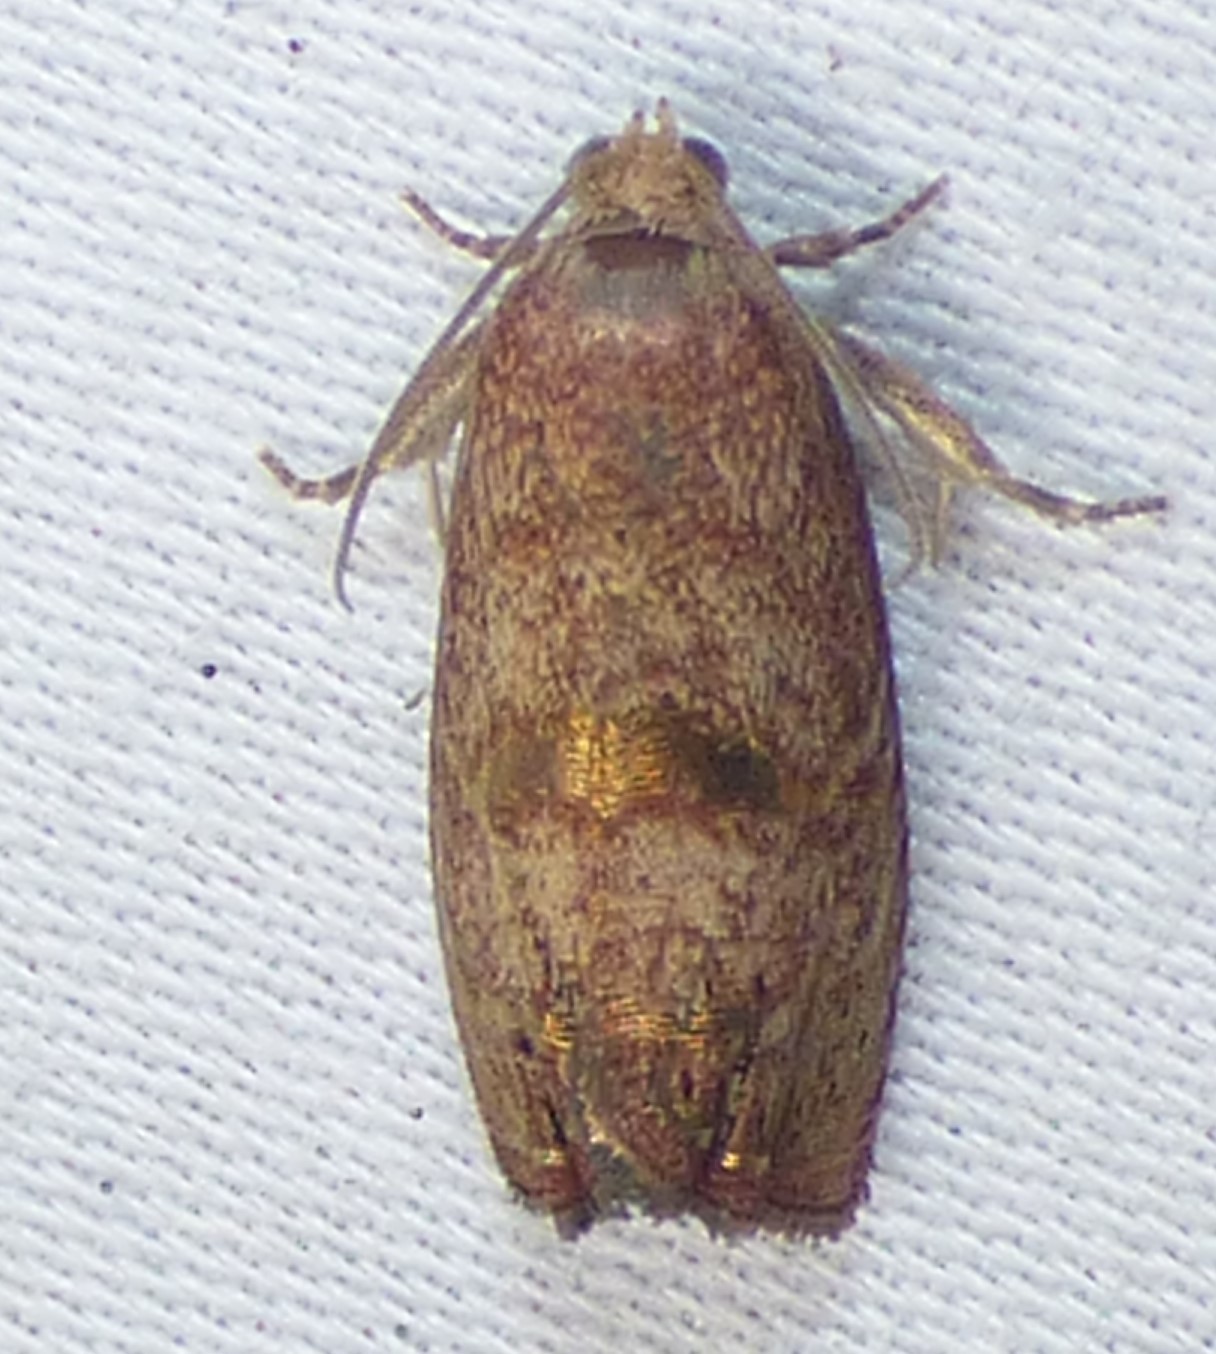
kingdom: Animalia
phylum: Arthropoda
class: Insecta
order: Lepidoptera
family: Tortricidae
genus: Cydia
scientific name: Cydia latiferreana
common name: Filbertworm moth
